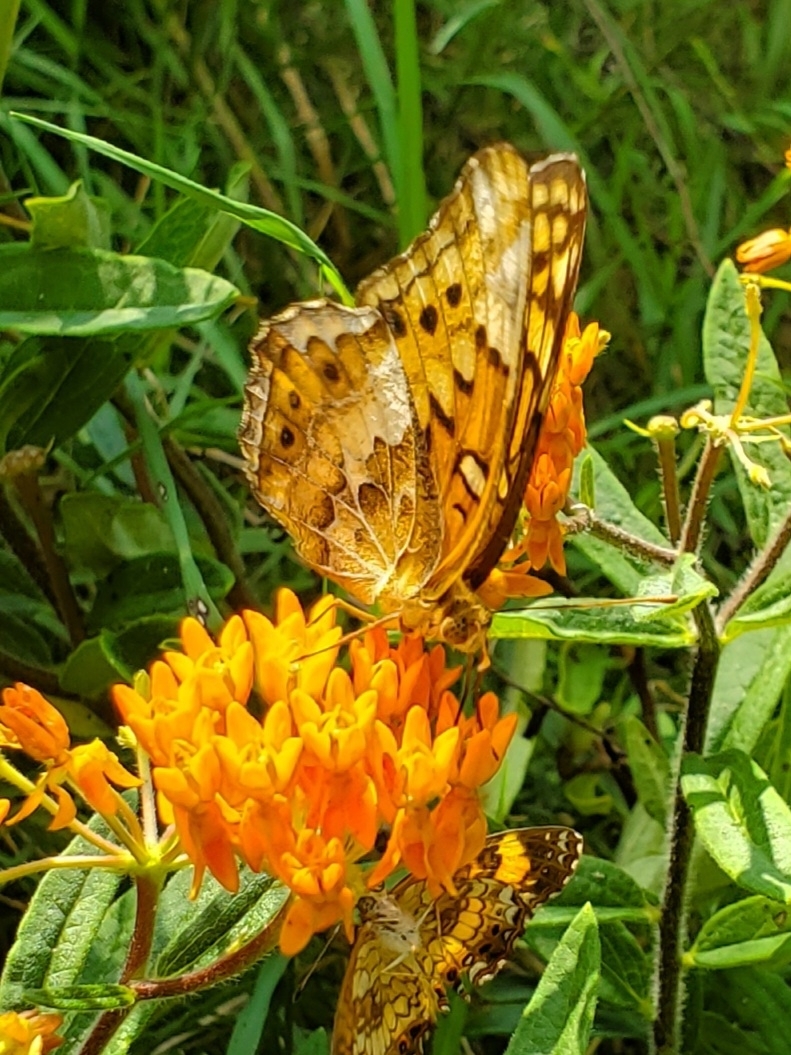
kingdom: Animalia
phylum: Arthropoda
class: Insecta
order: Lepidoptera
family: Nymphalidae
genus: Euptoieta
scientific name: Euptoieta claudia
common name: Variegated fritillary
